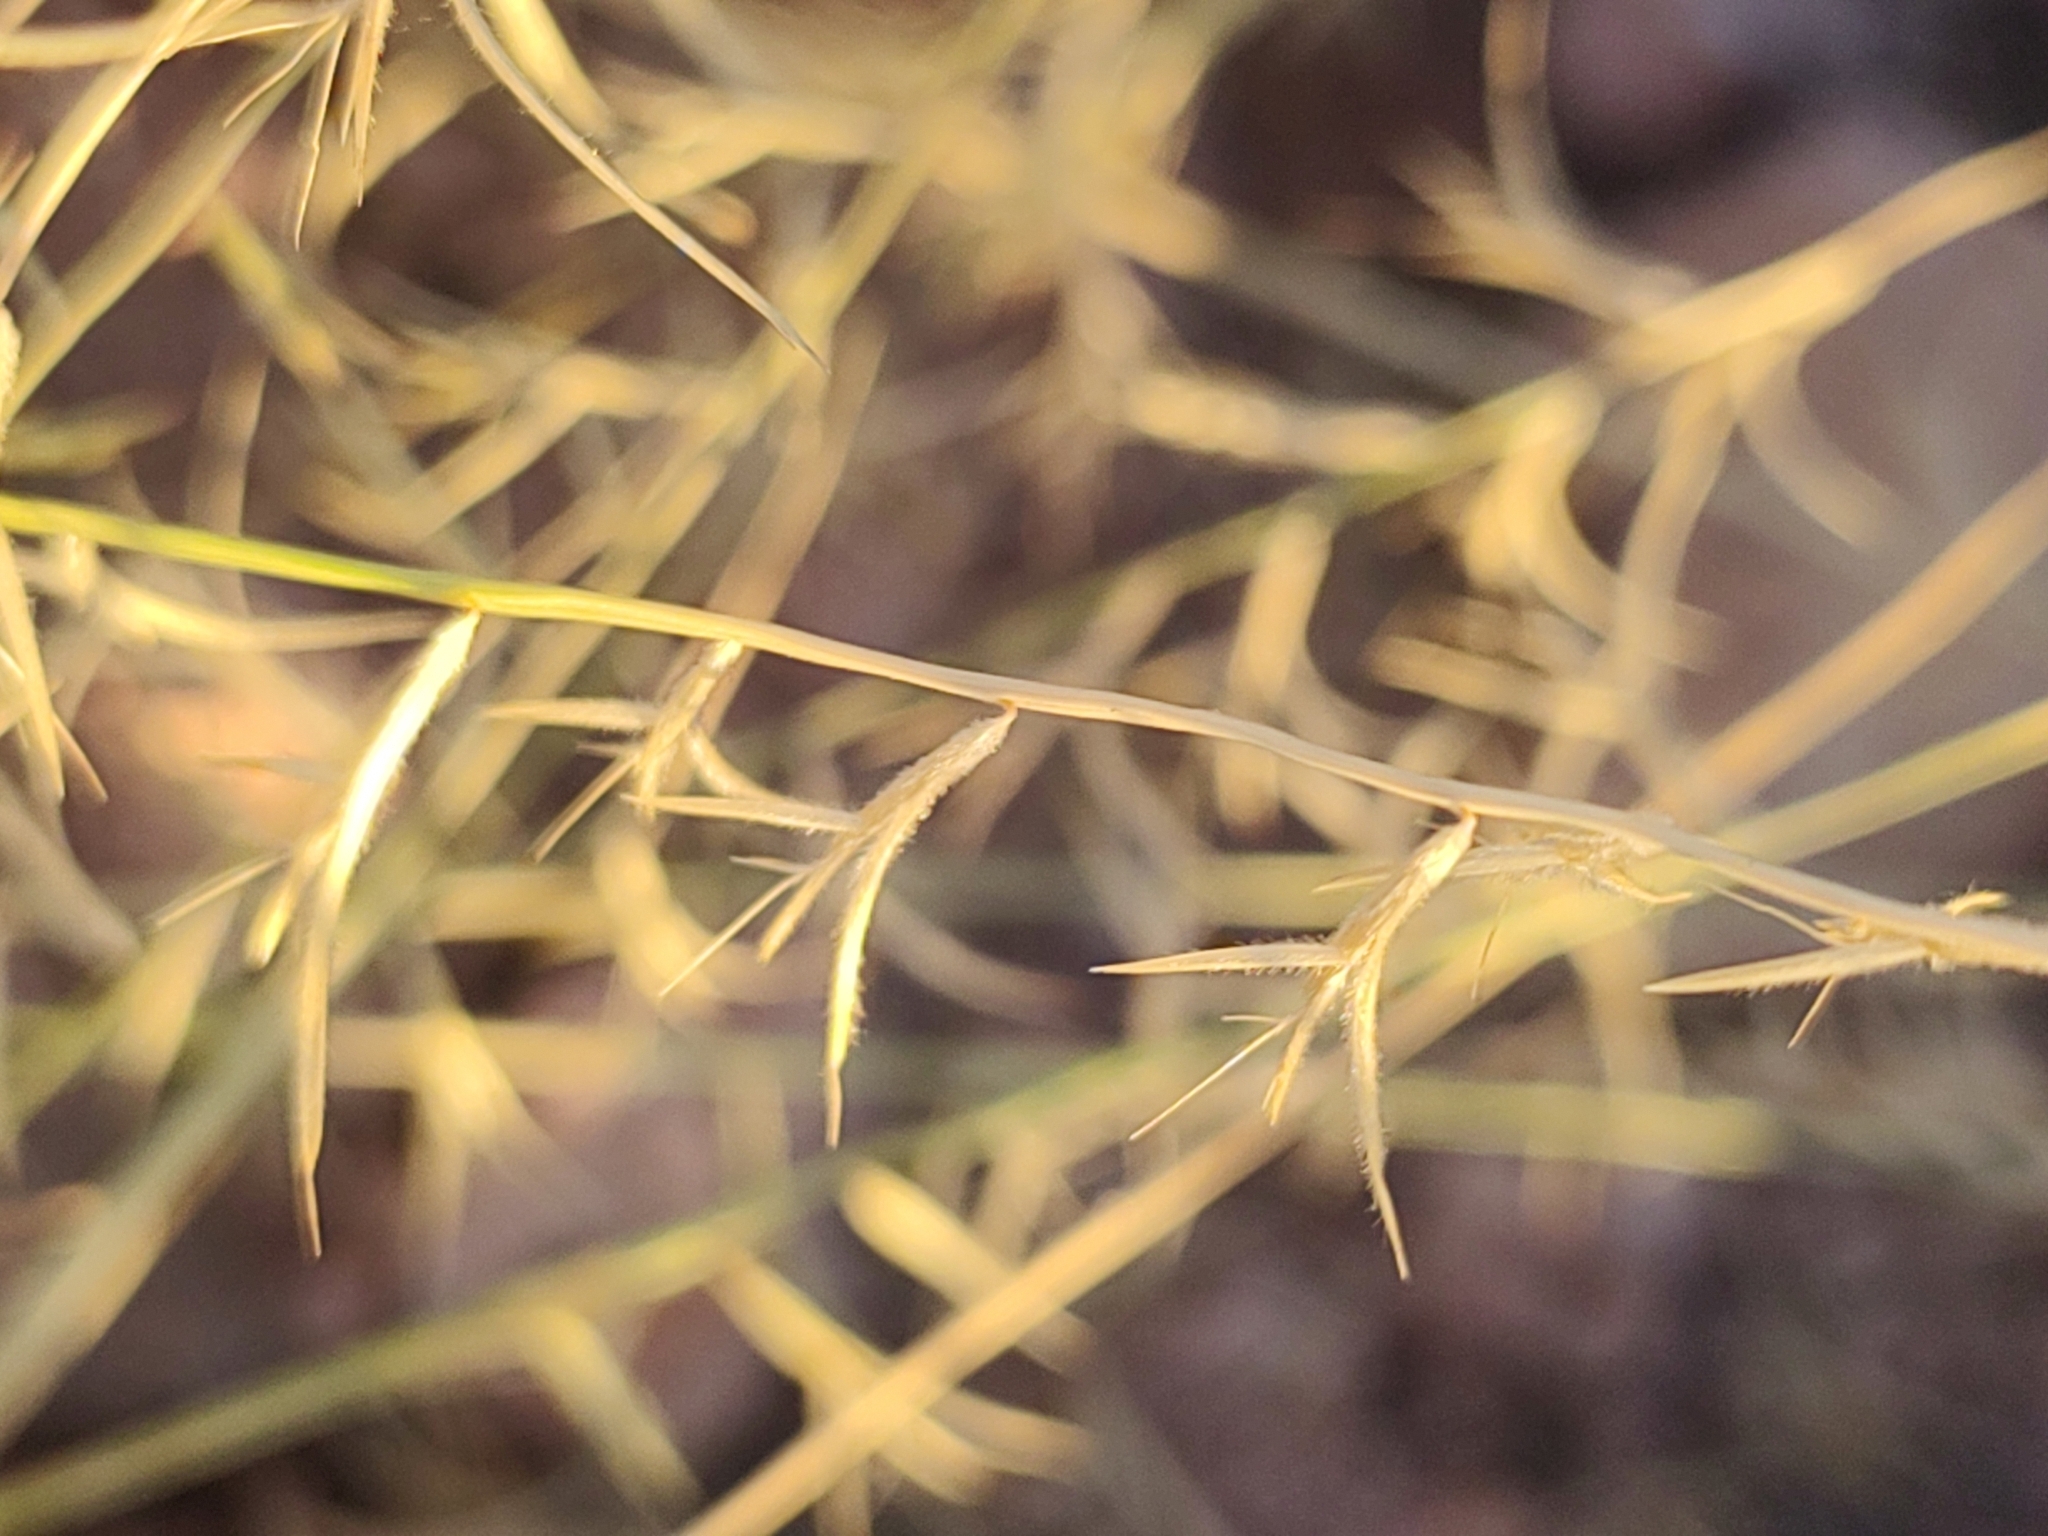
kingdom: Plantae
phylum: Tracheophyta
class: Liliopsida
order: Poales
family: Poaceae
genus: Bouteloua
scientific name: Bouteloua aristidoides
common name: Needle grama
